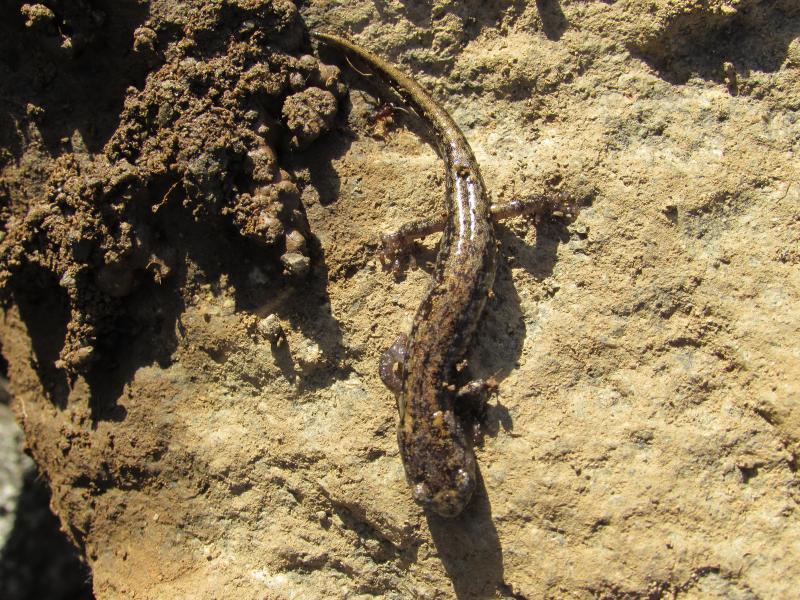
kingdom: Animalia
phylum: Chordata
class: Amphibia
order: Caudata
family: Plethodontidae
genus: Aneides
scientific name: Aneides ferreus
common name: Clouded salamander
